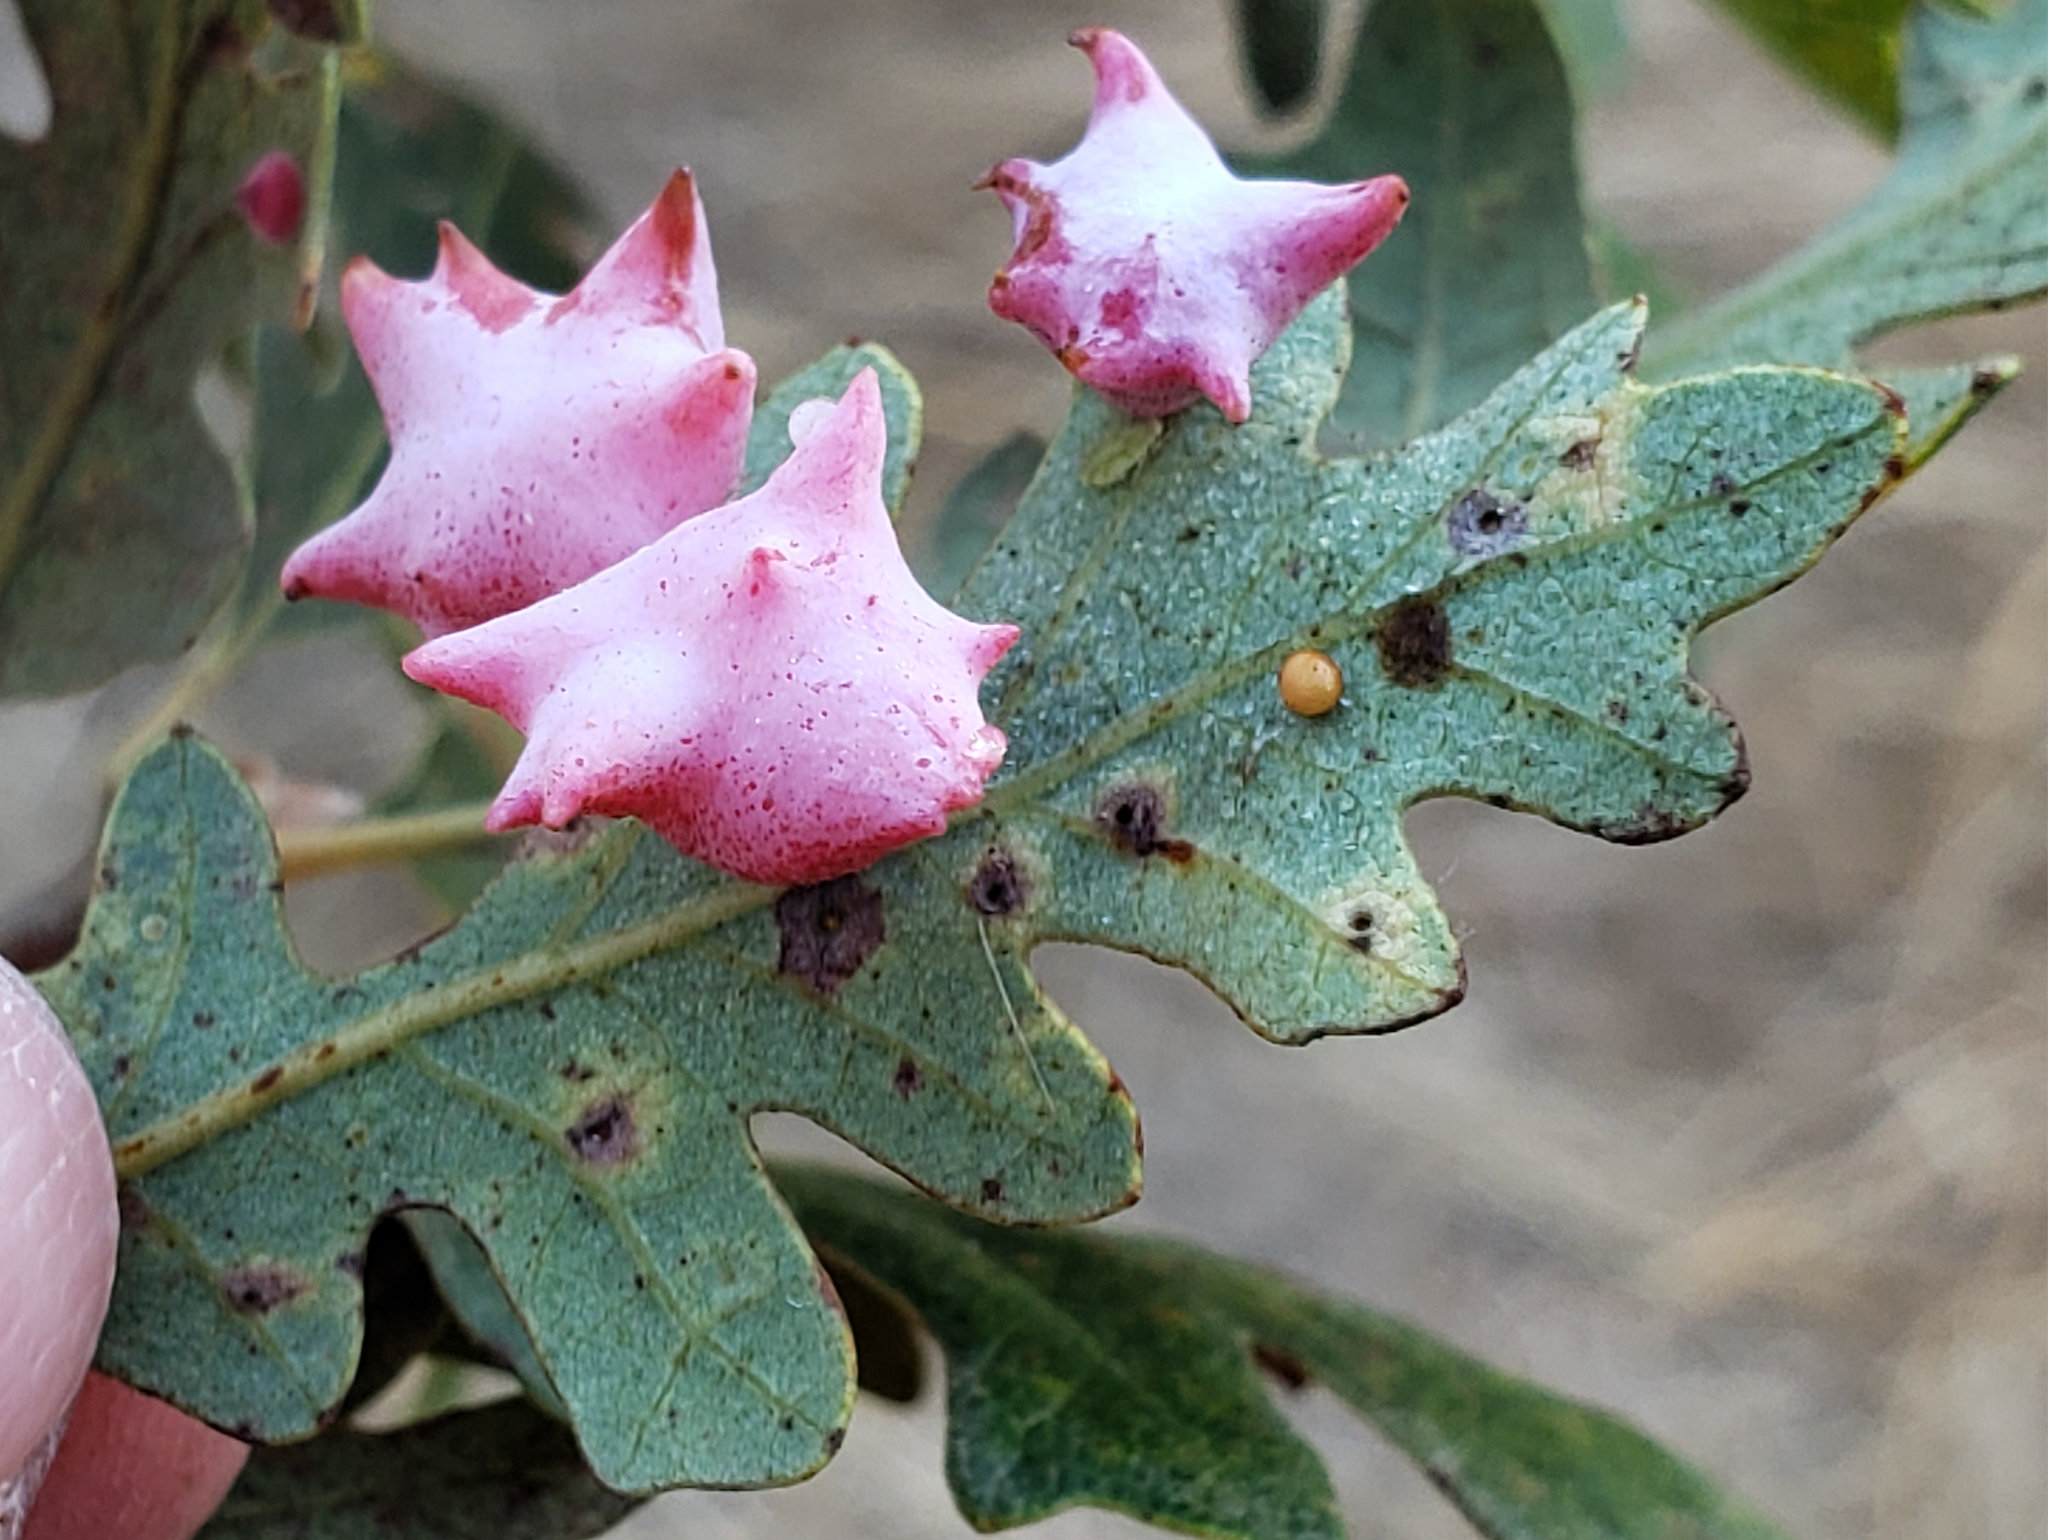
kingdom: Animalia
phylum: Arthropoda
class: Insecta
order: Hymenoptera
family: Cynipidae
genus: Cynips
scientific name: Cynips douglasi
